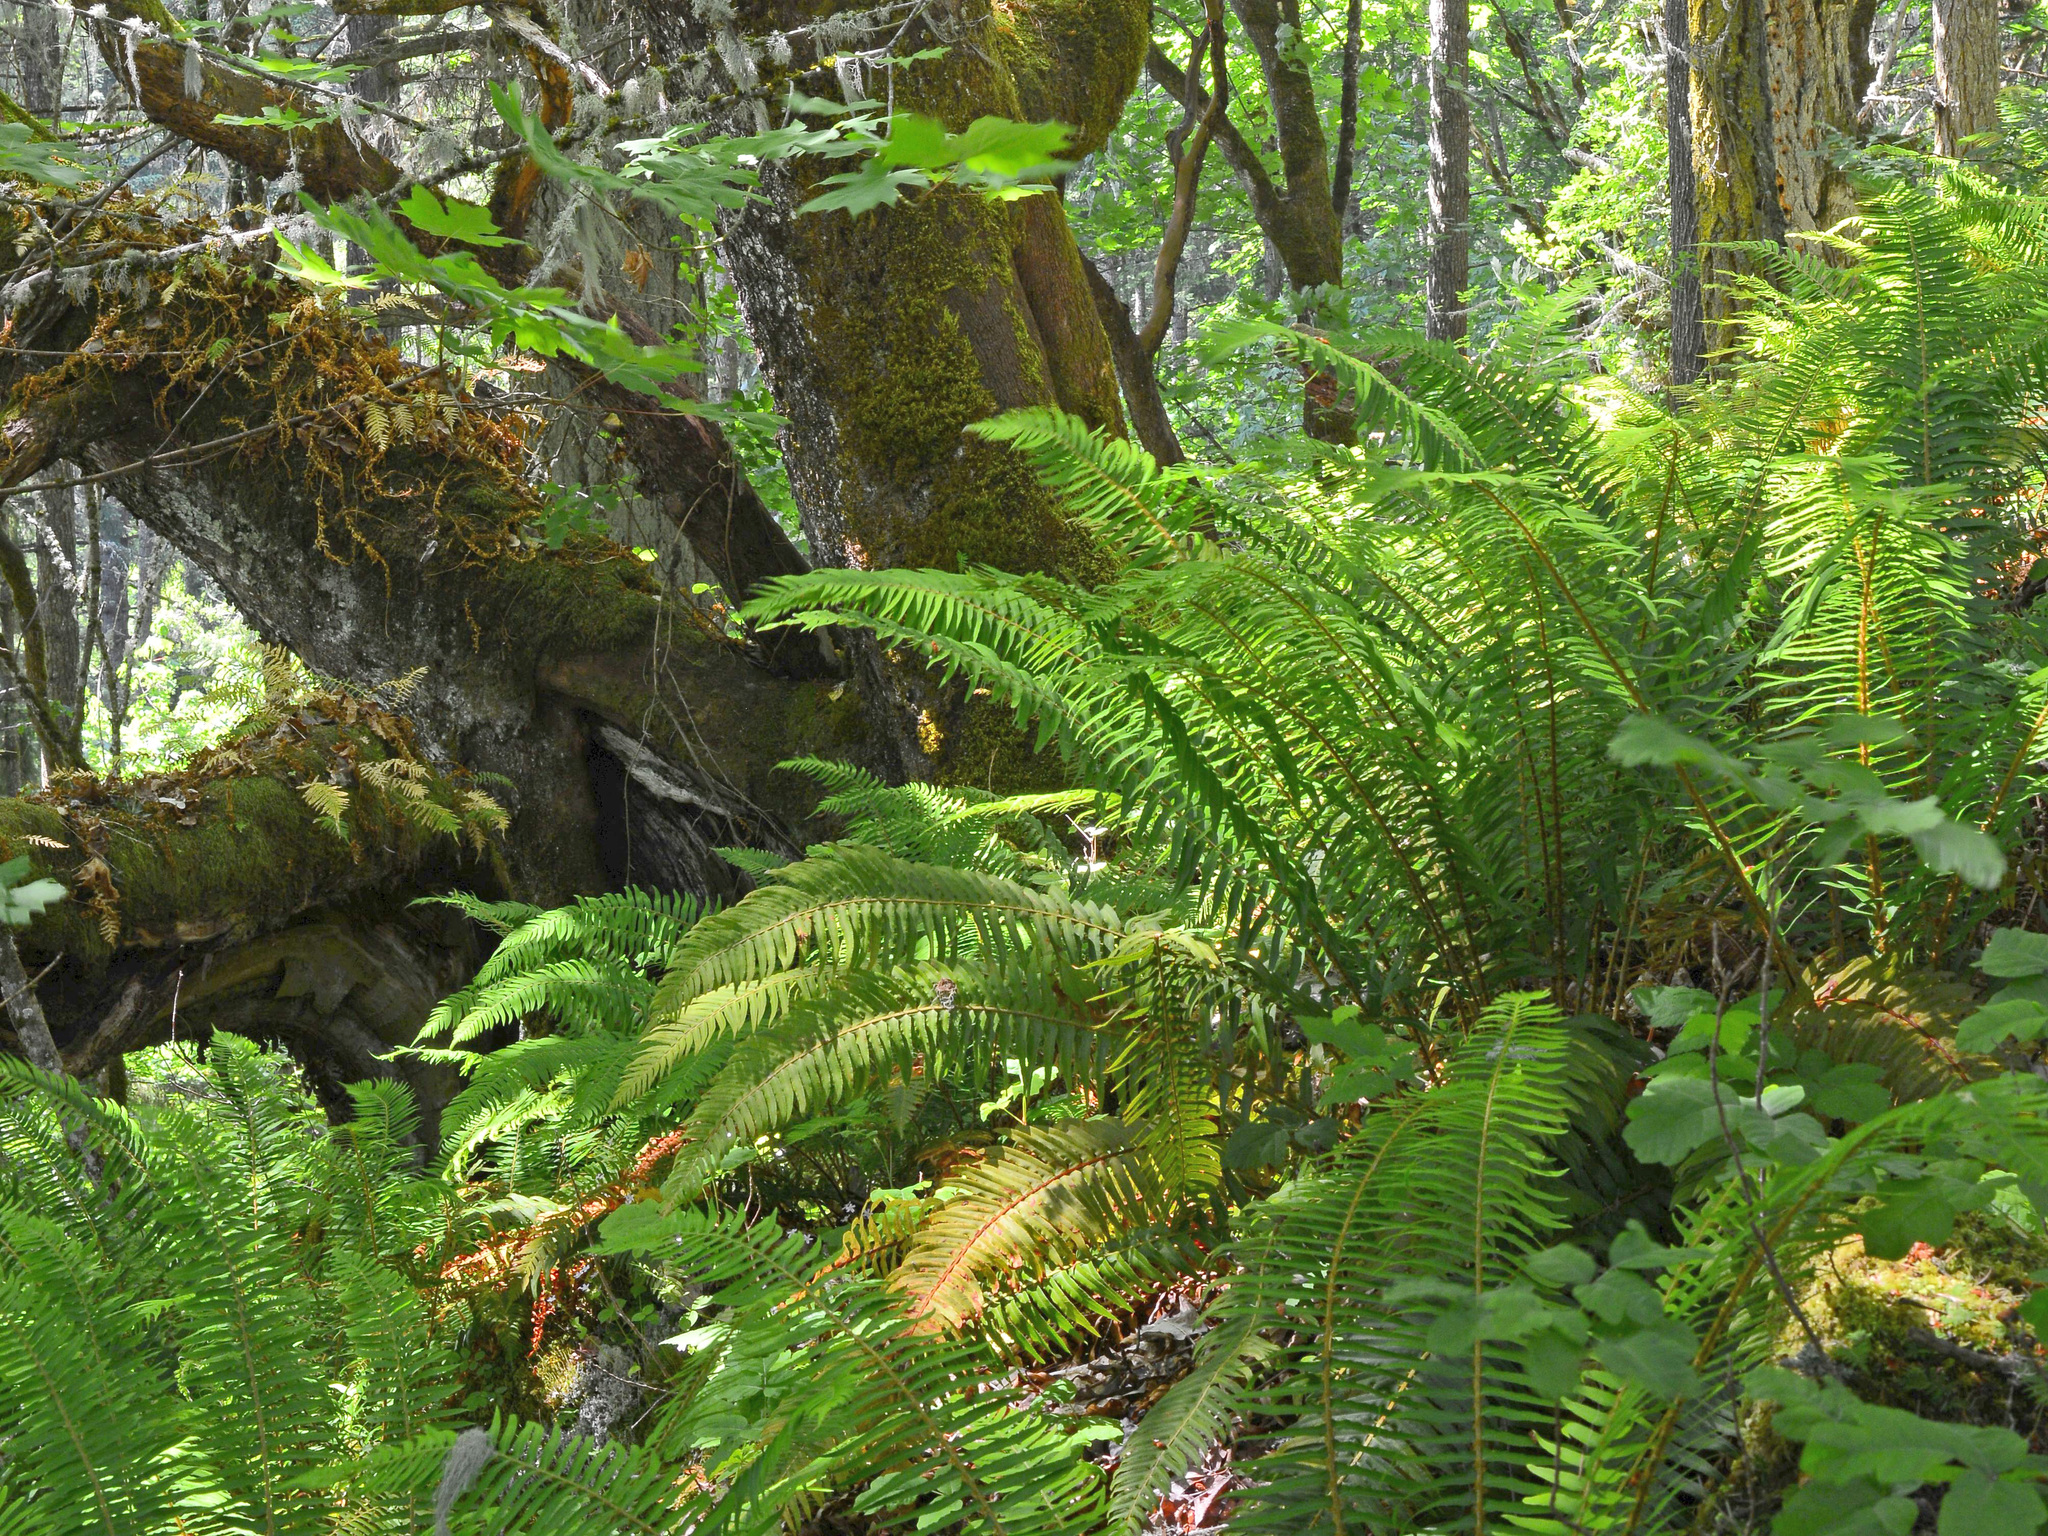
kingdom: Plantae
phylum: Tracheophyta
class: Polypodiopsida
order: Polypodiales
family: Dryopteridaceae
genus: Polystichum
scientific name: Polystichum munitum
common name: Western sword-fern
